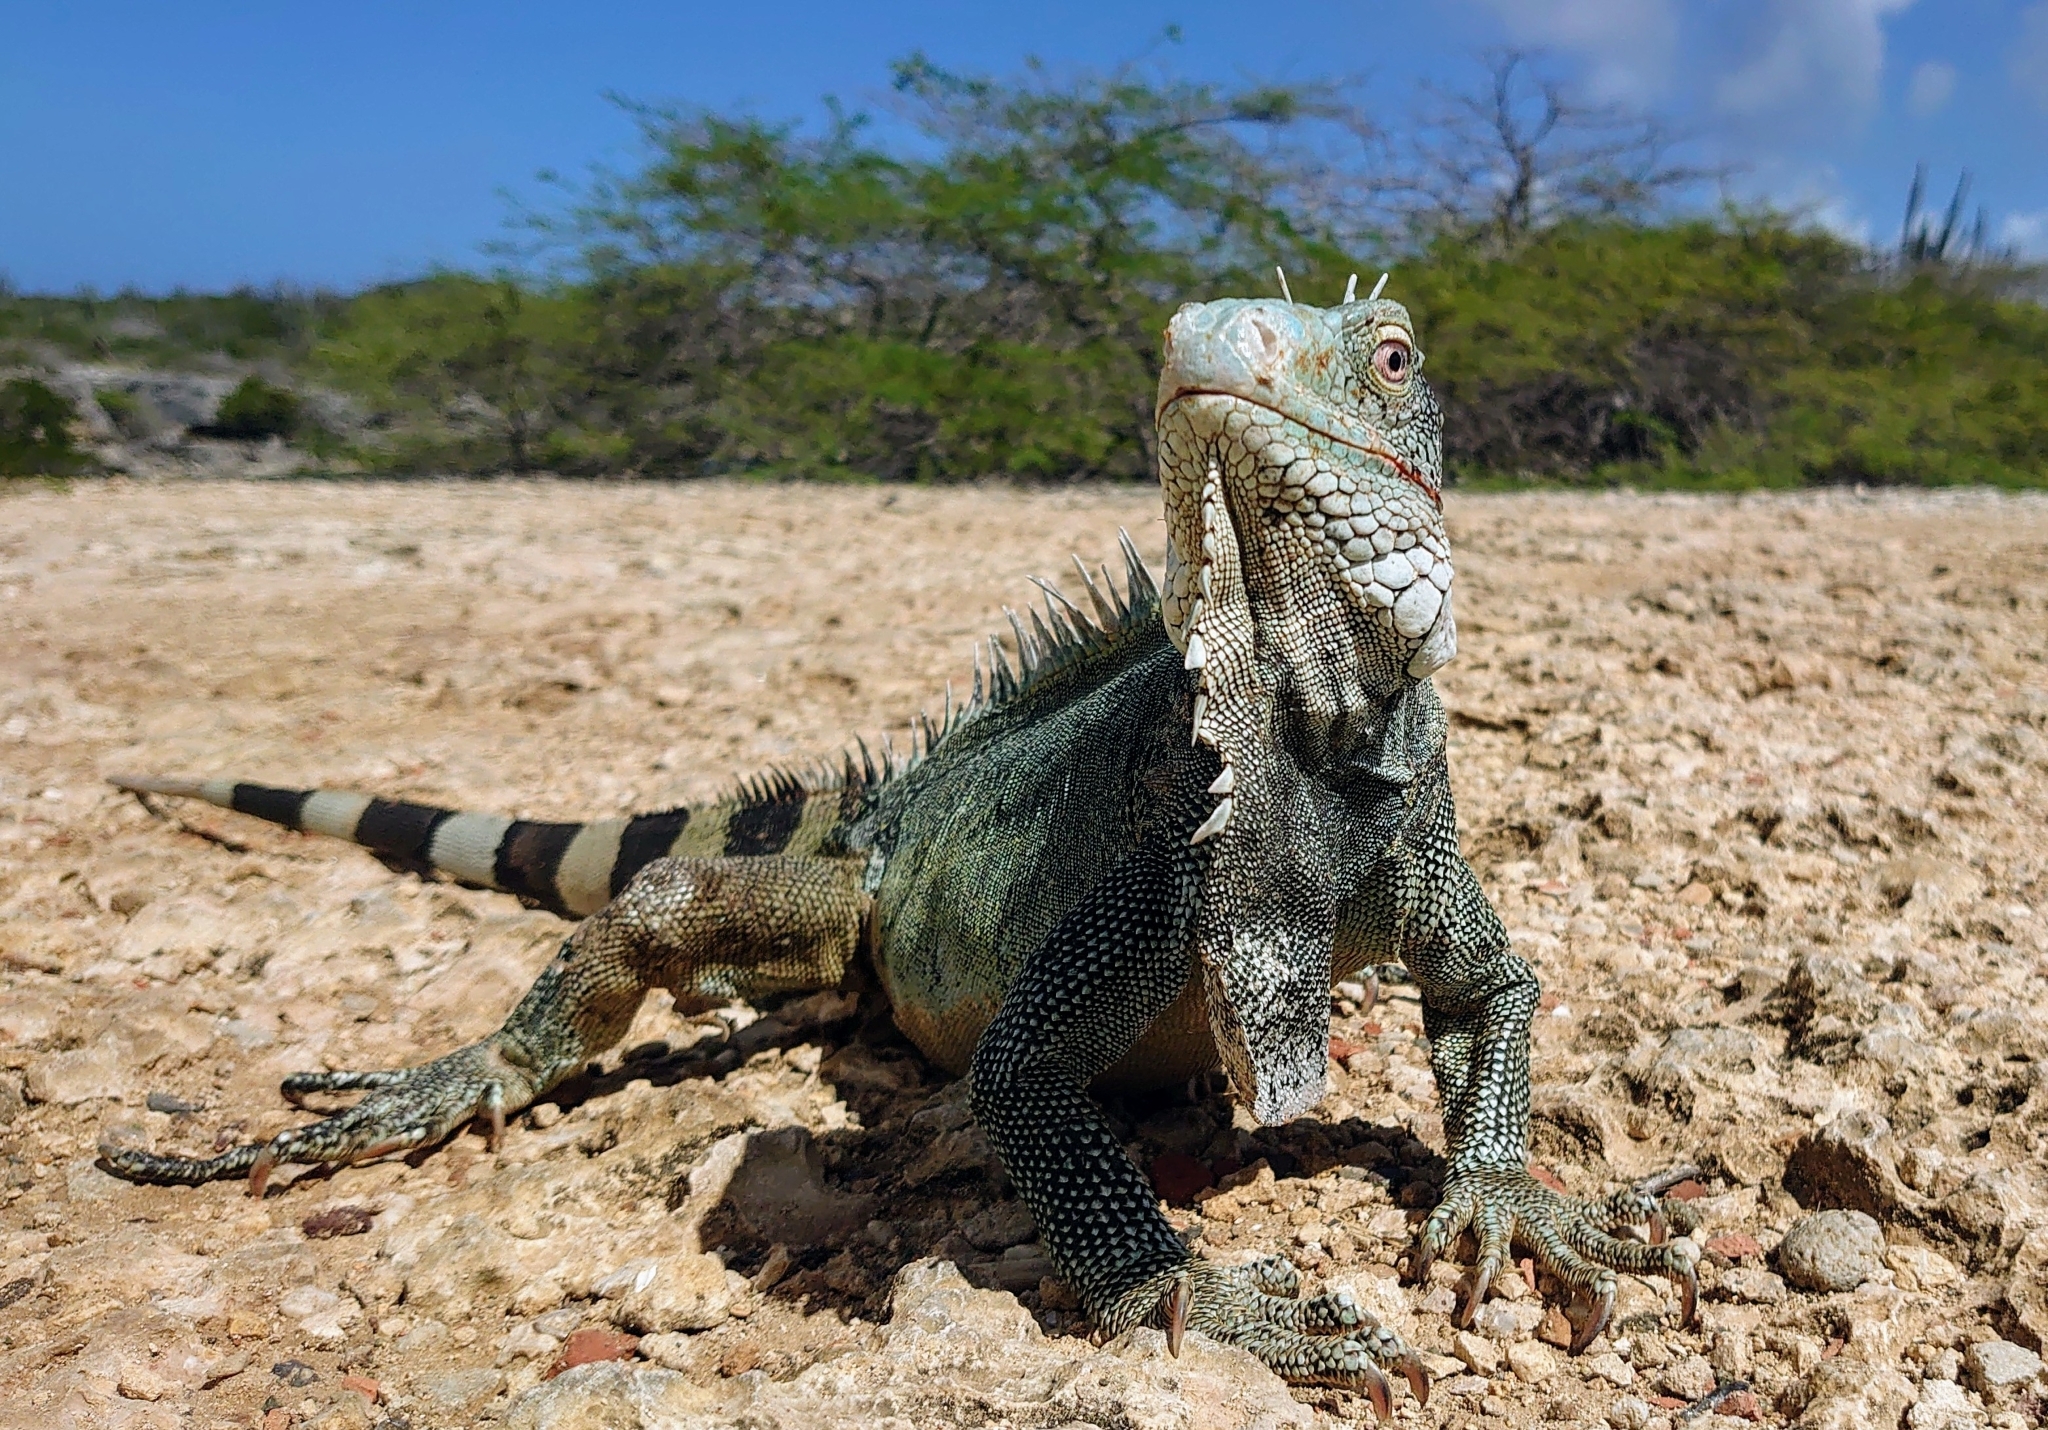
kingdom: Animalia
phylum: Chordata
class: Squamata
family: Iguanidae
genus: Iguana
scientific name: Iguana iguana
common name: Green iguana
